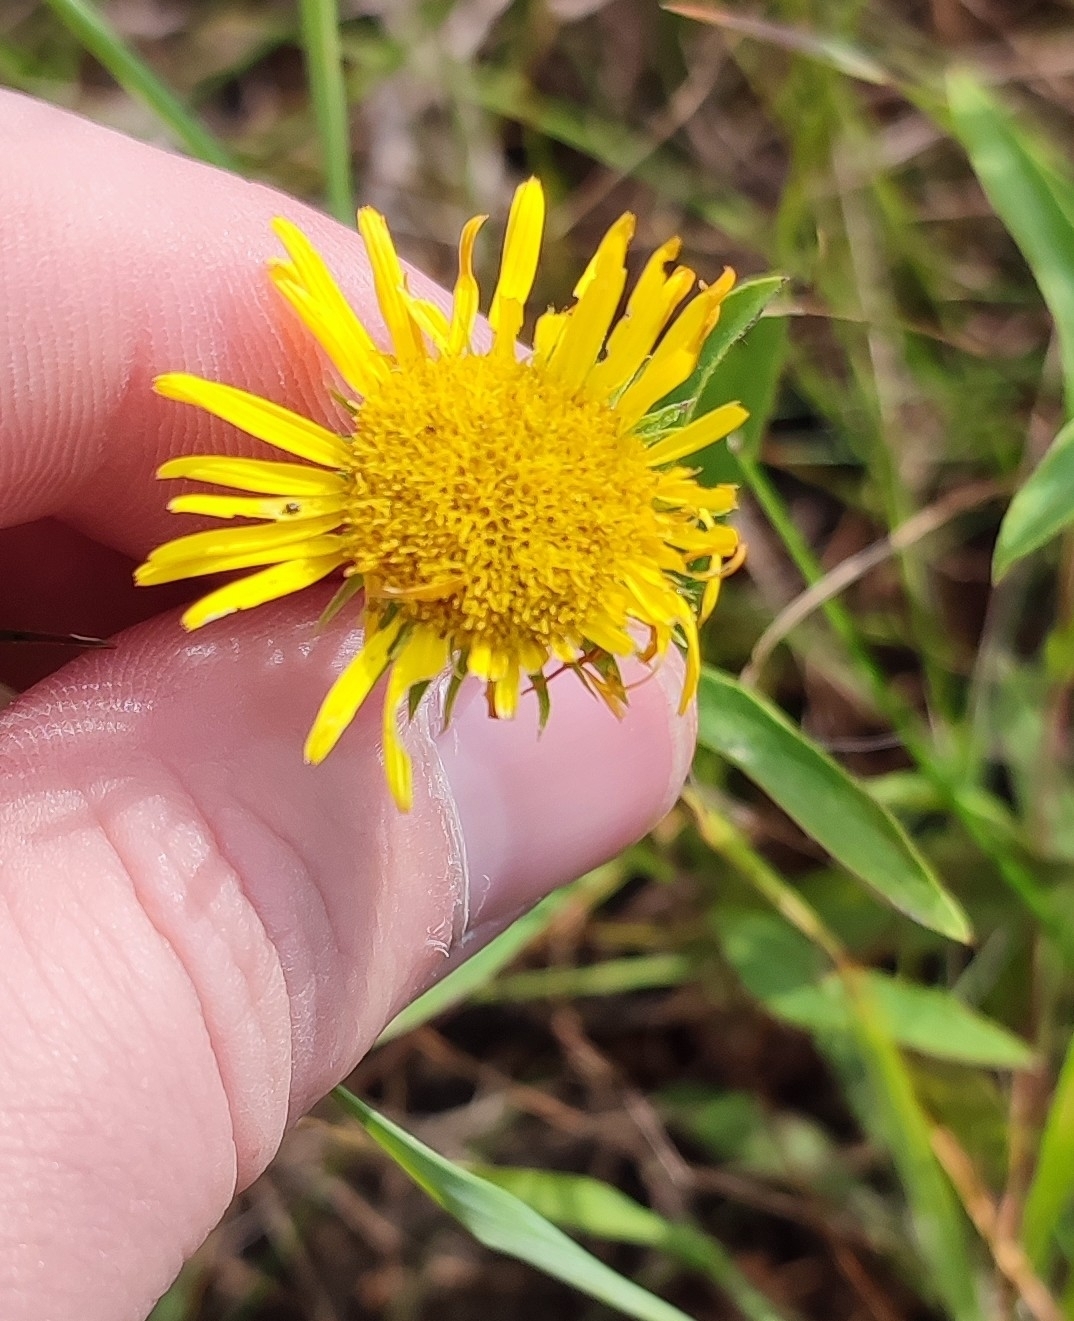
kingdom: Plantae
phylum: Tracheophyta
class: Magnoliopsida
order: Asterales
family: Asteraceae
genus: Pentanema
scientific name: Pentanema britannicum
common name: British elecampane
